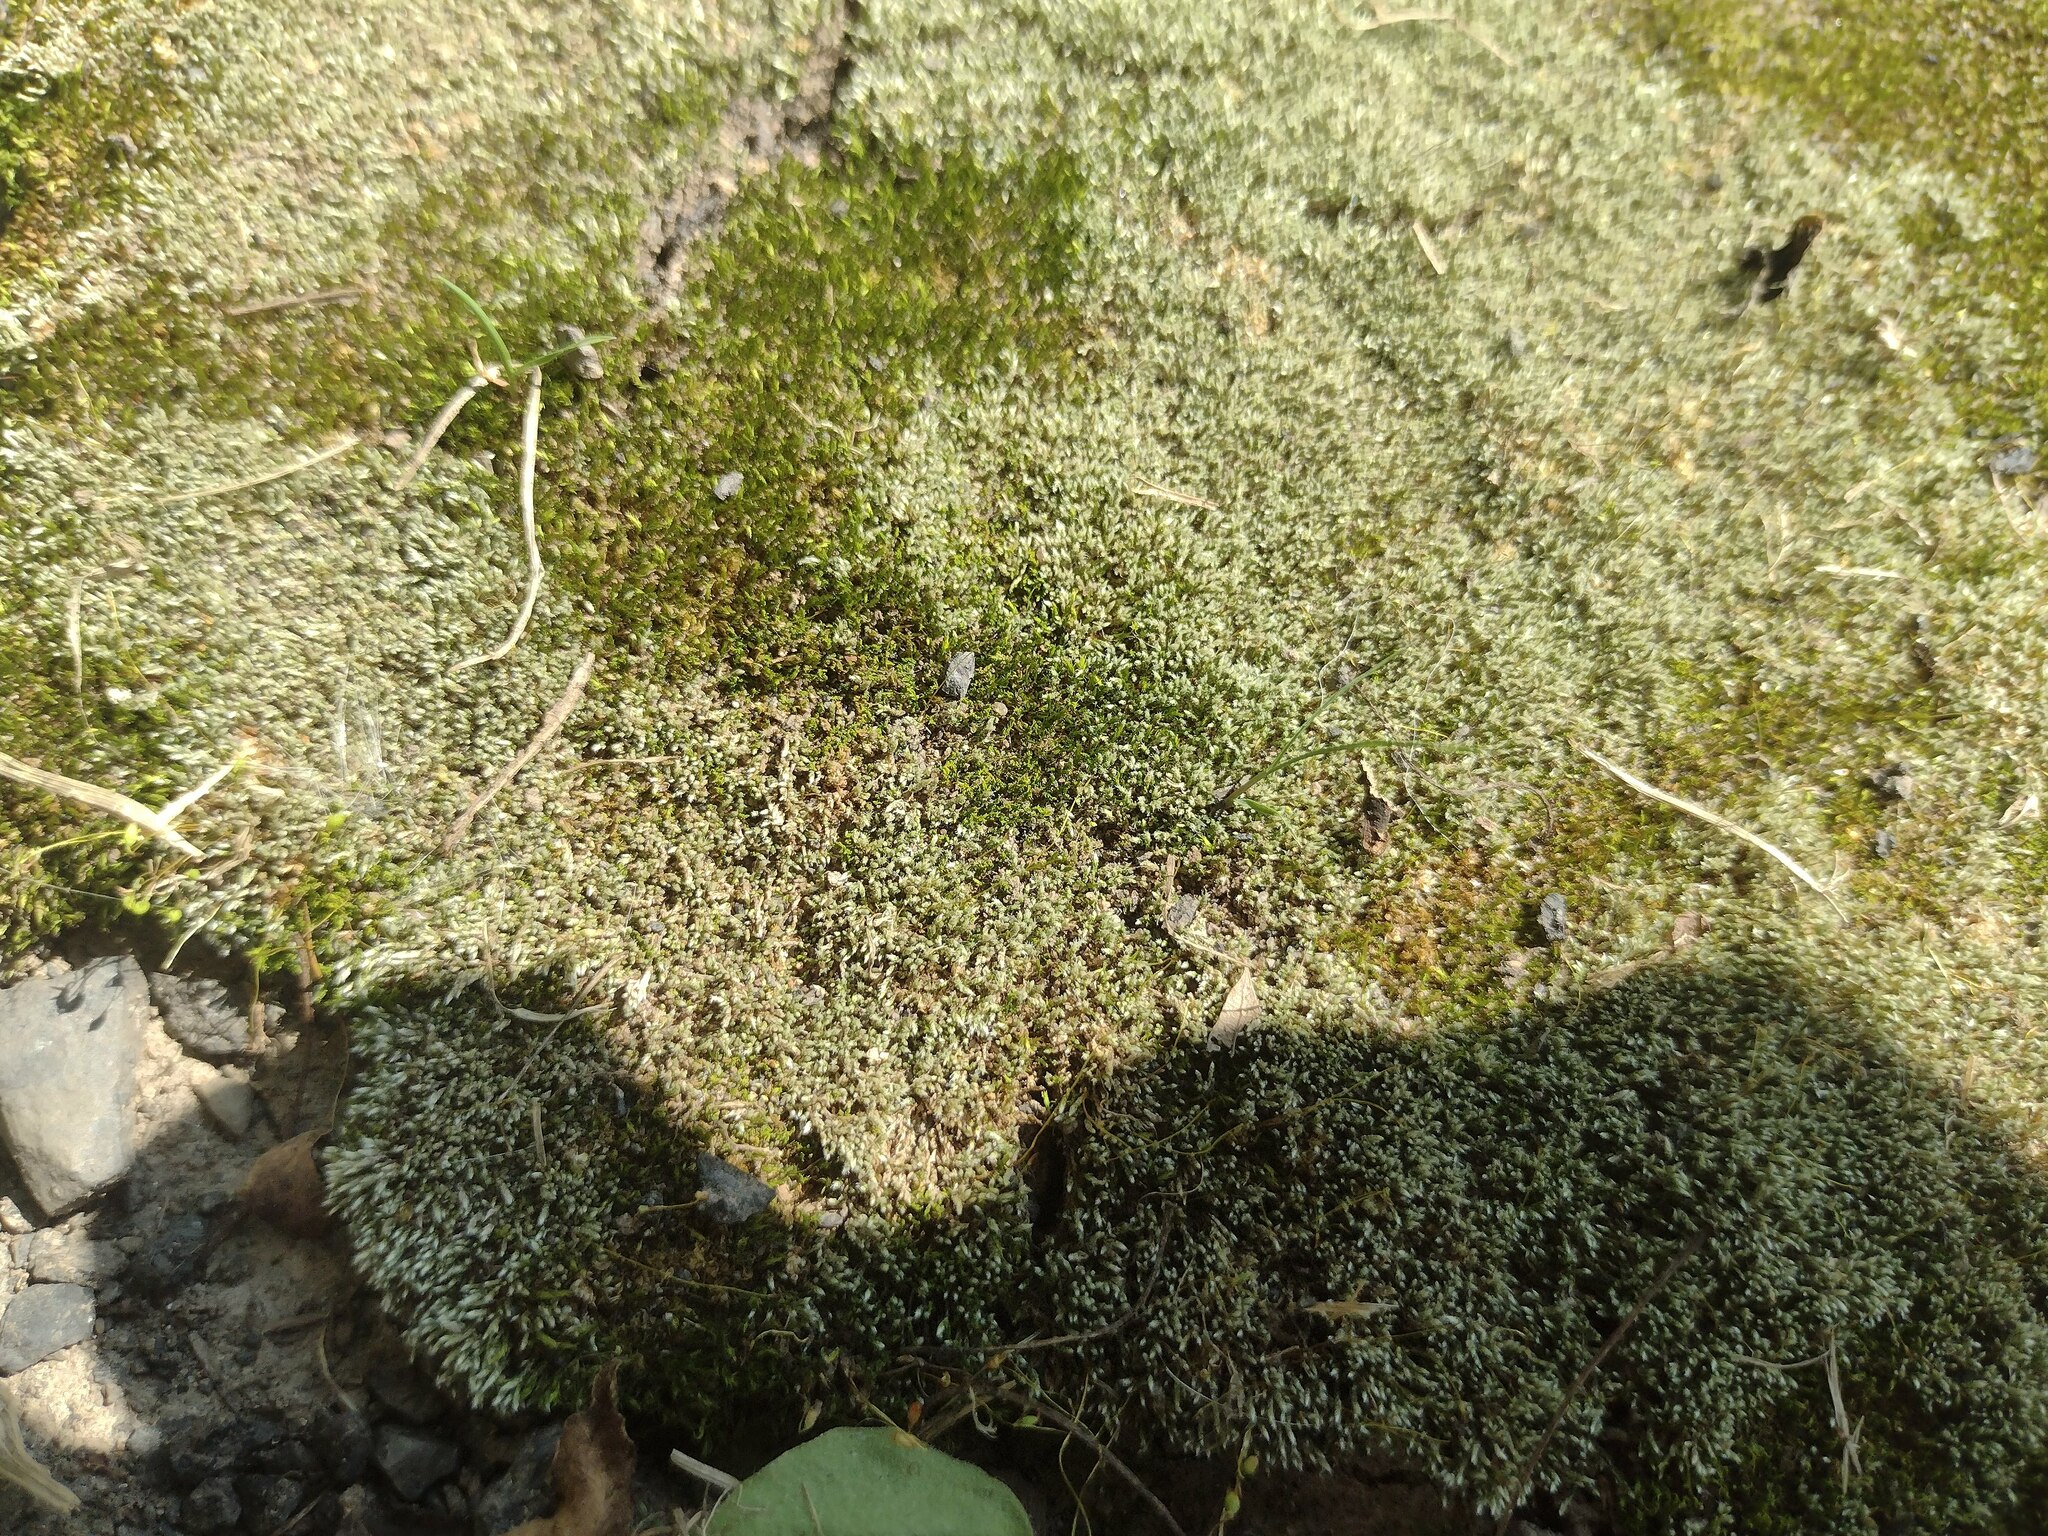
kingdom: Plantae
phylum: Bryophyta
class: Bryopsida
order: Bryales
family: Bryaceae
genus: Bryum
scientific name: Bryum argenteum
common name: Silver-moss
